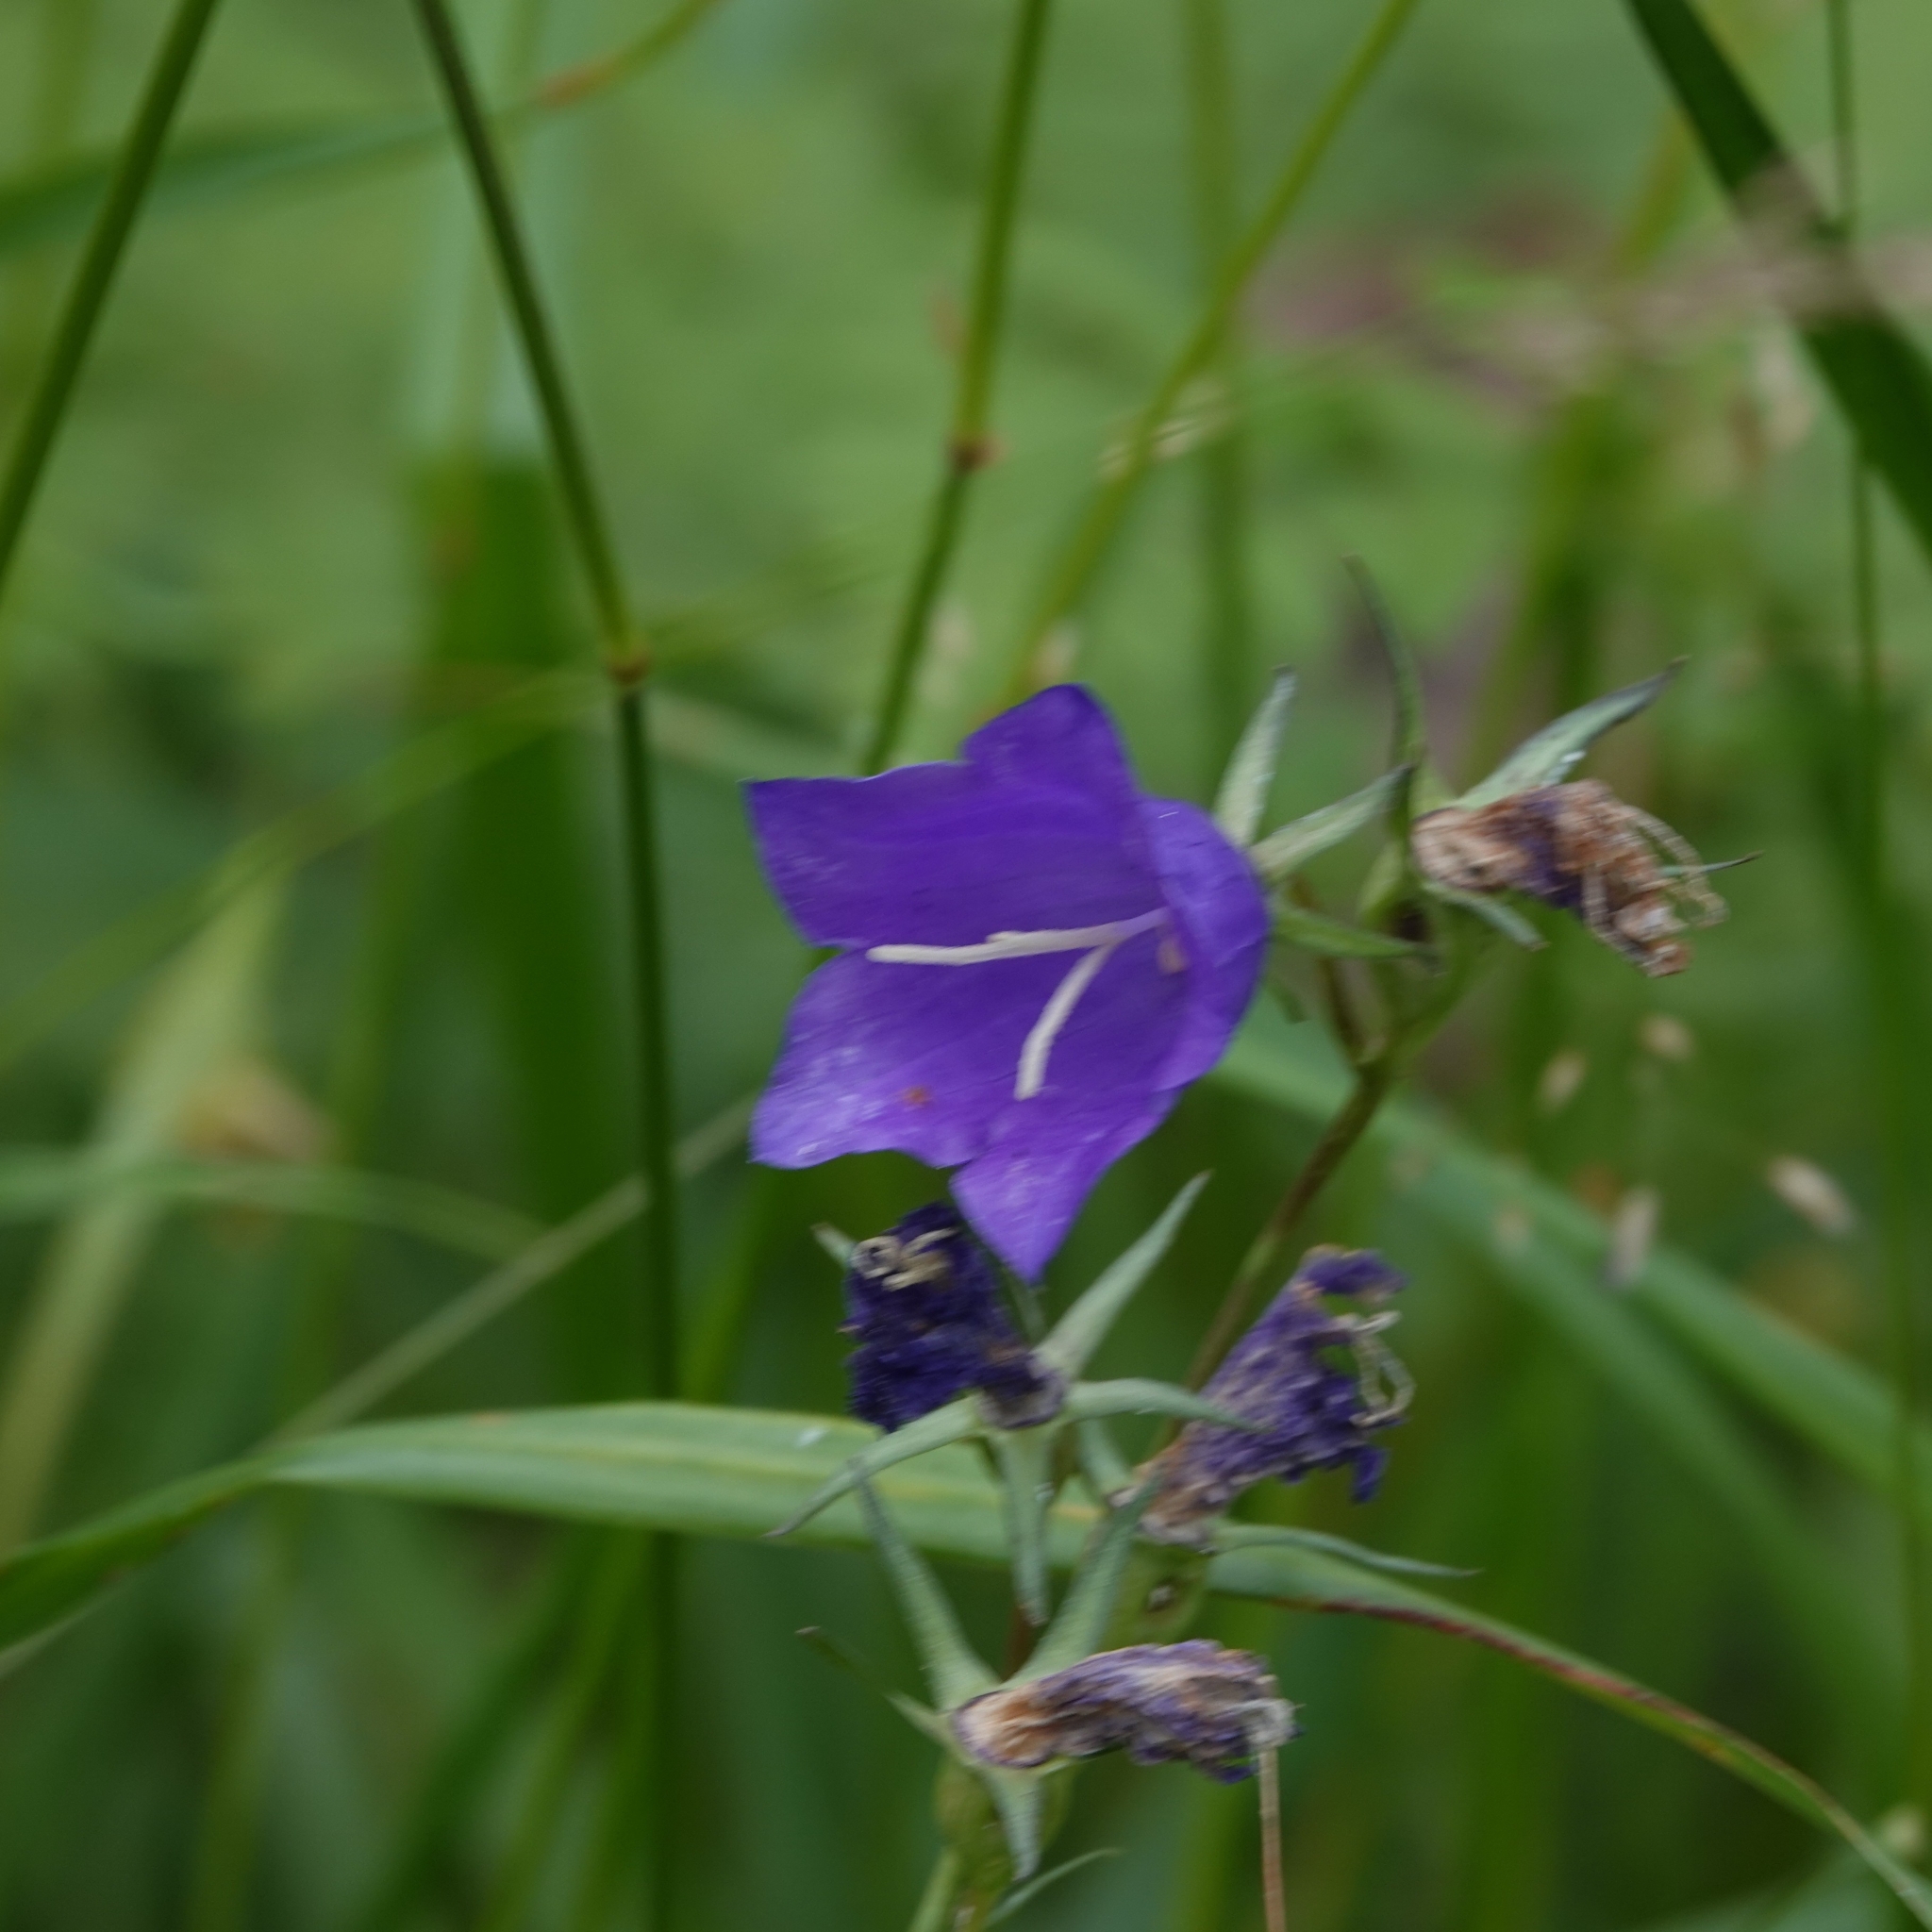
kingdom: Plantae
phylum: Tracheophyta
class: Magnoliopsida
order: Asterales
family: Campanulaceae
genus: Campanula
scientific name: Campanula persicifolia
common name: Peach-leaved bellflower
